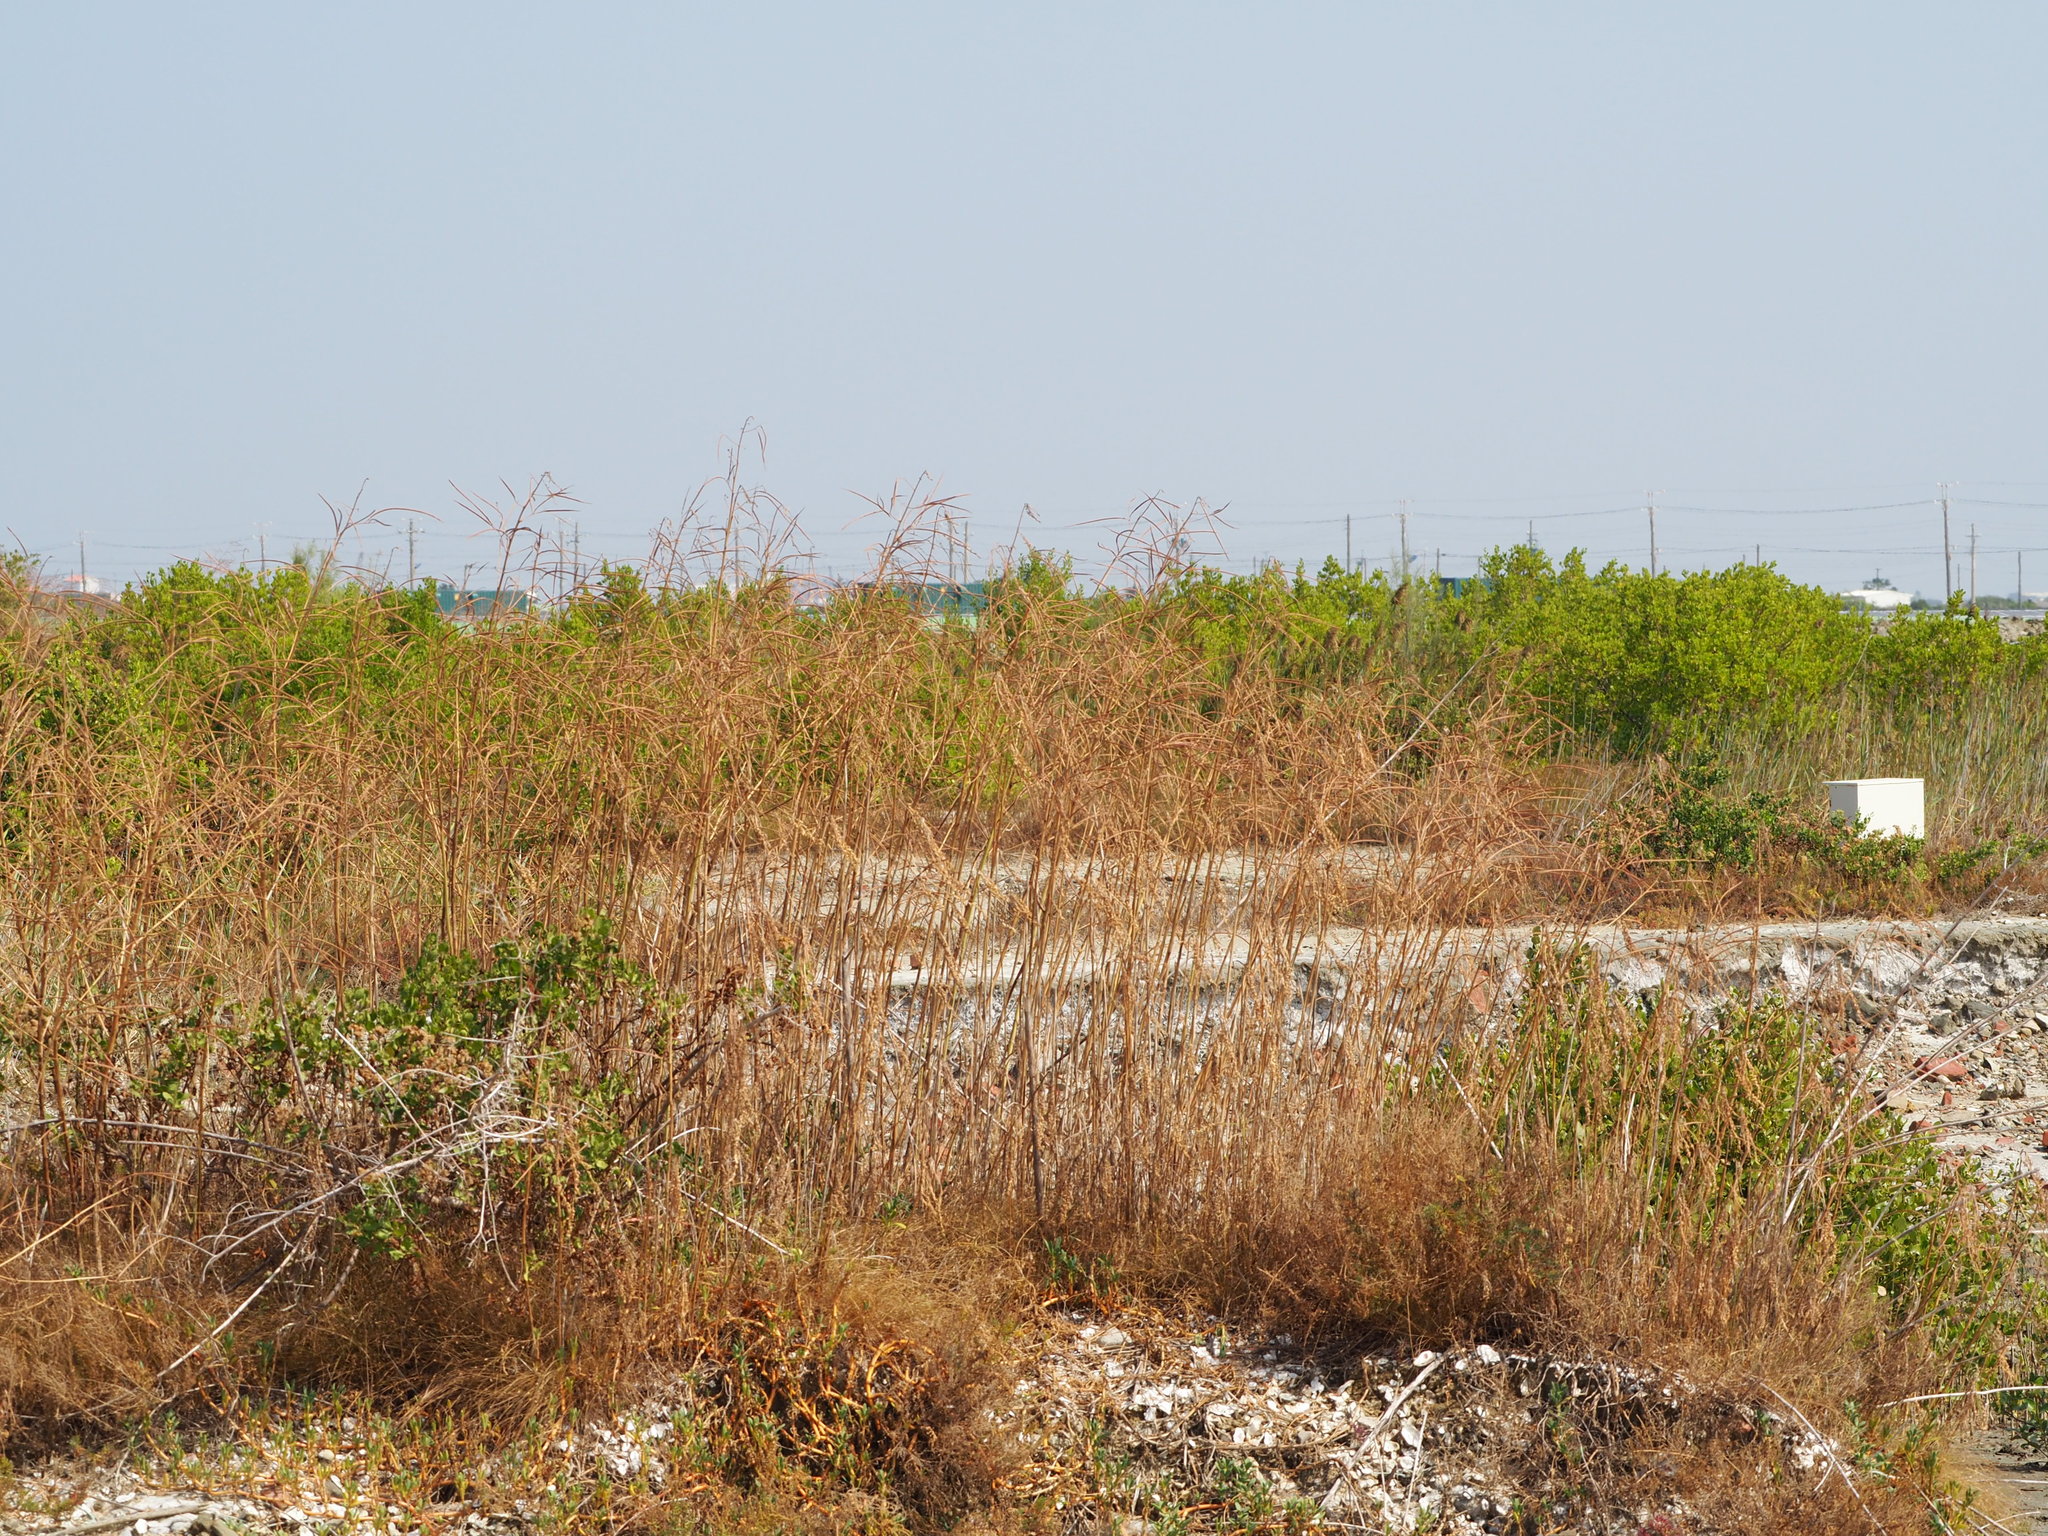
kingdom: Plantae
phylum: Tracheophyta
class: Magnoliopsida
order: Fabales
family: Fabaceae
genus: Sesbania
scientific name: Sesbania cannabina
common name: Canicha
